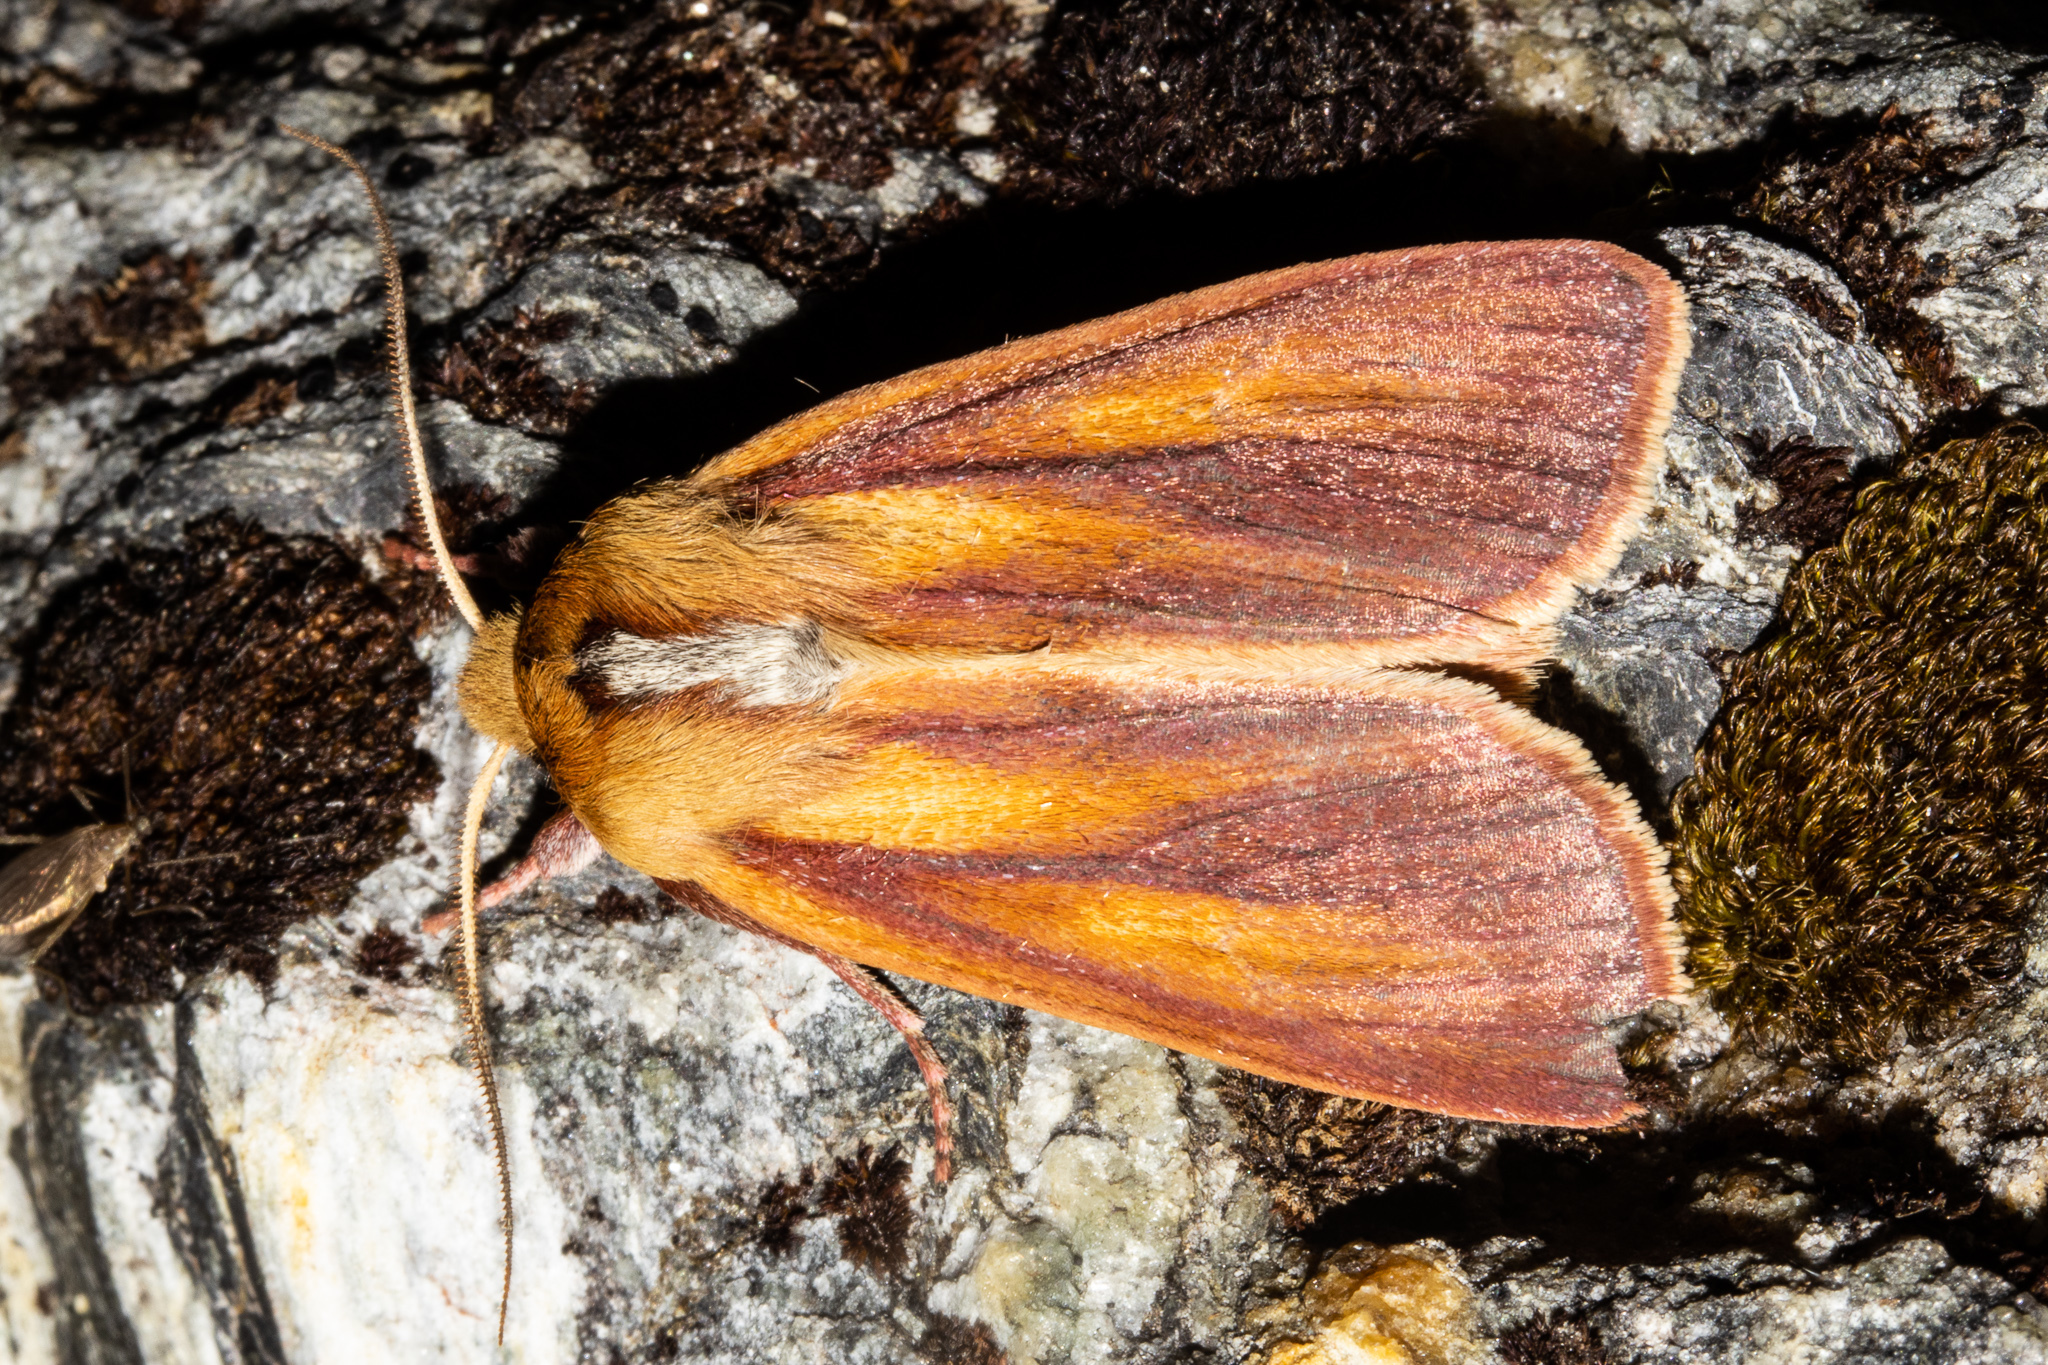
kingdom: Animalia
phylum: Arthropoda
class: Insecta
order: Lepidoptera
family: Noctuidae
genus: Ichneutica
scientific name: Ichneutica
